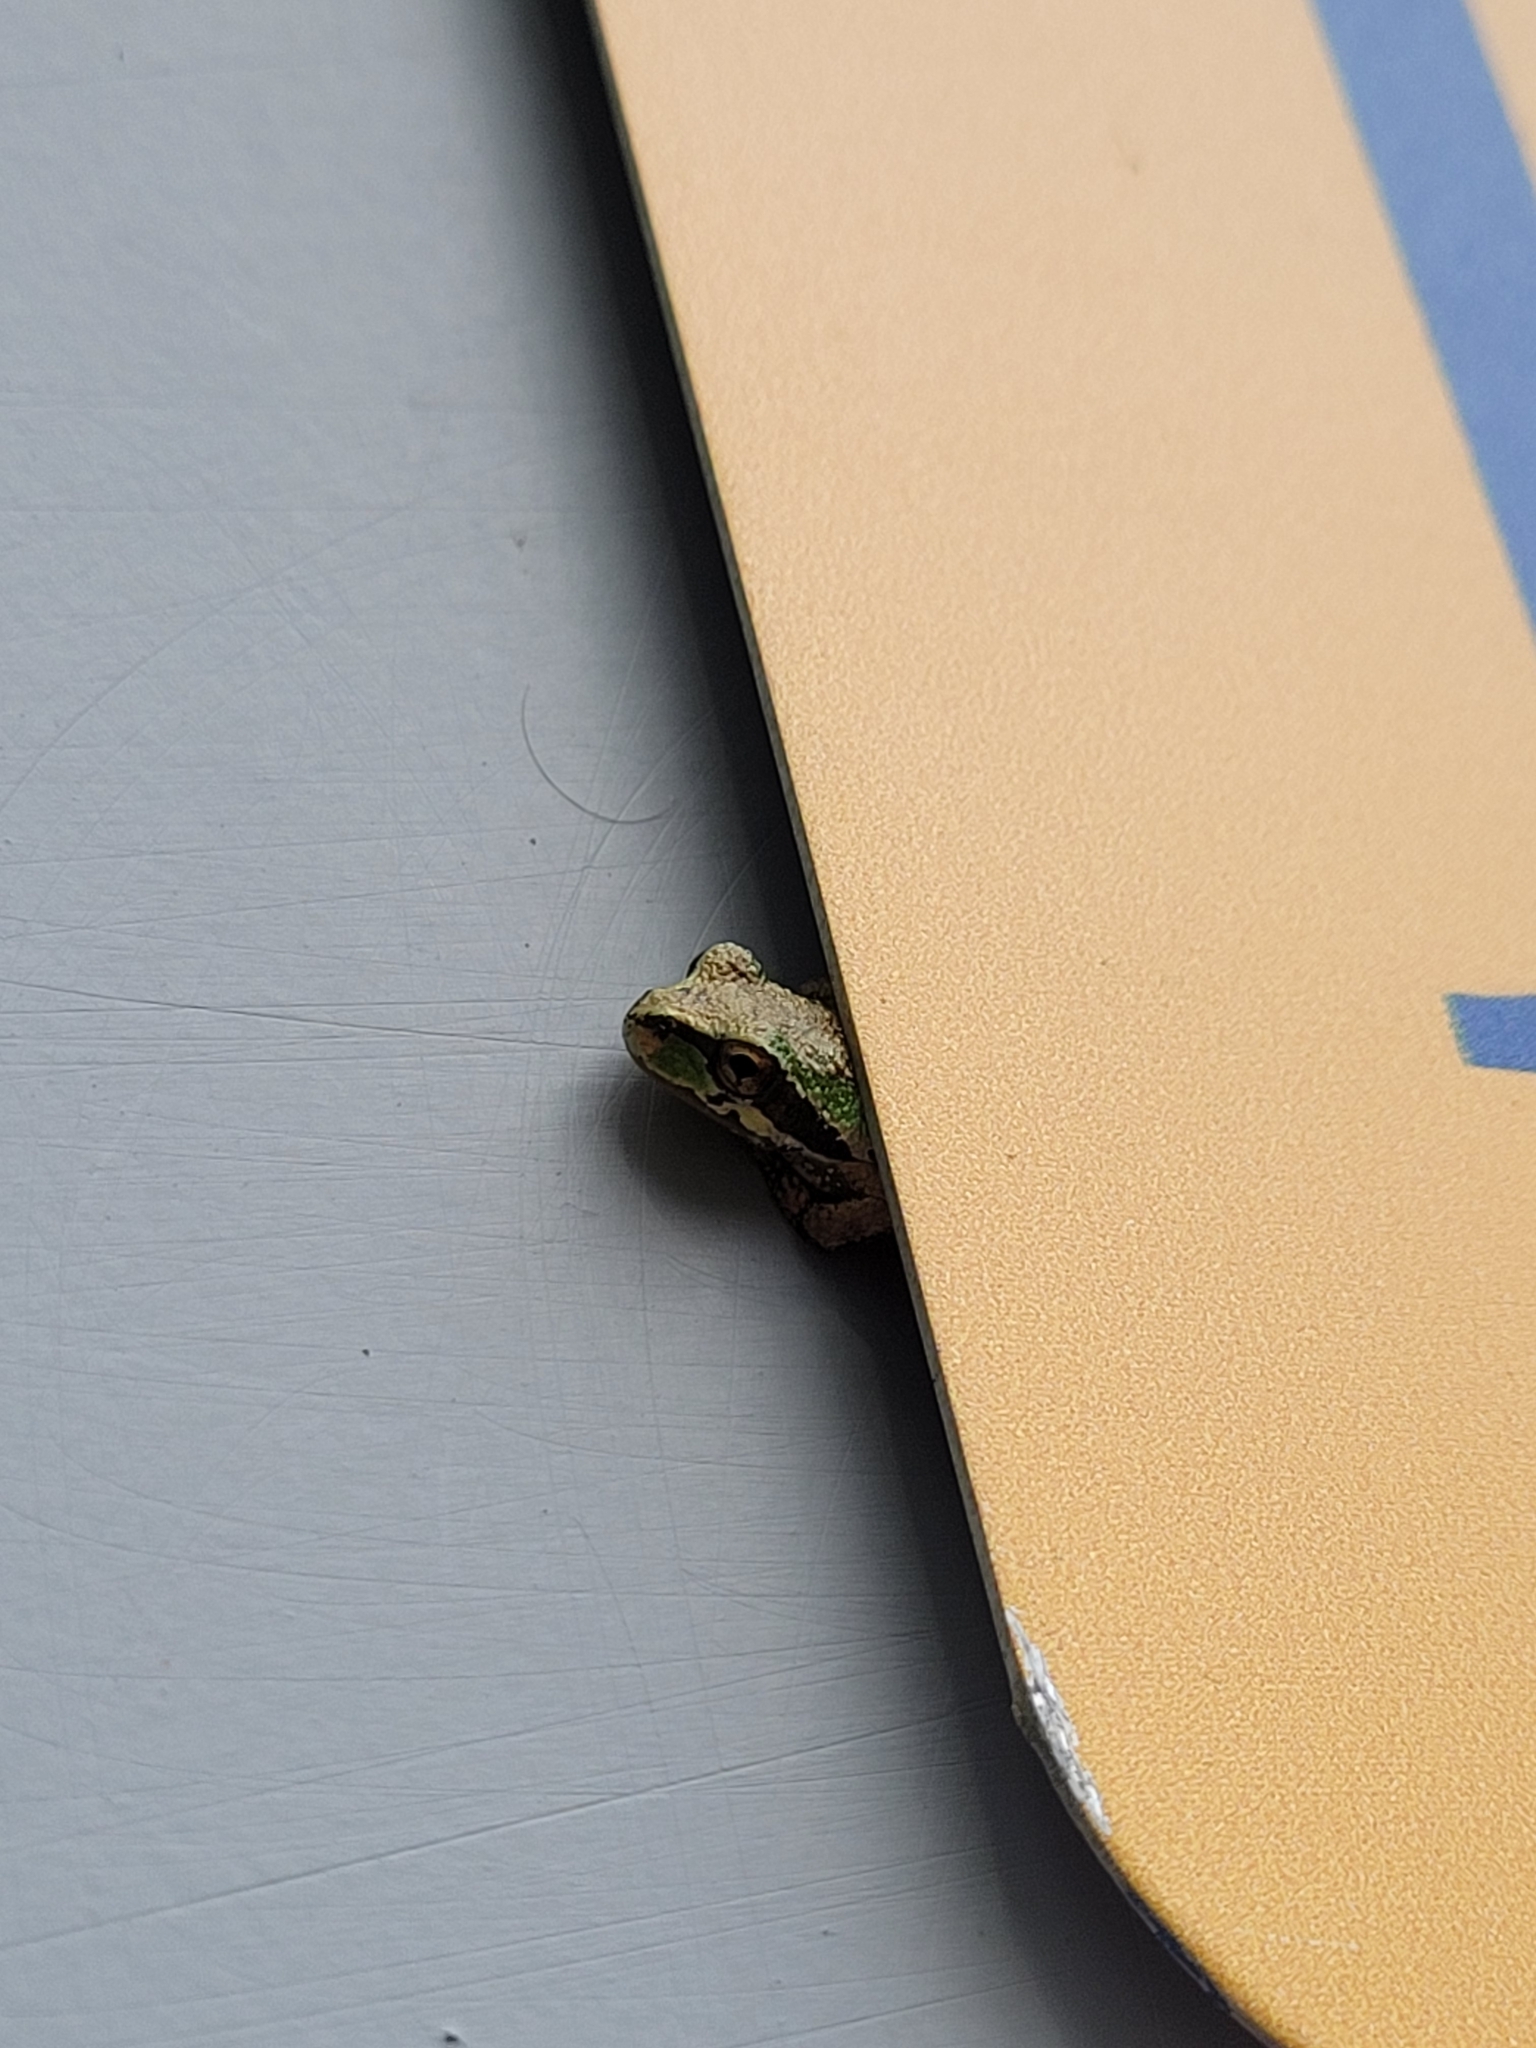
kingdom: Animalia
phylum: Chordata
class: Amphibia
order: Anura
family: Hylidae
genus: Pseudacris
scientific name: Pseudacris regilla
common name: Pacific chorus frog
